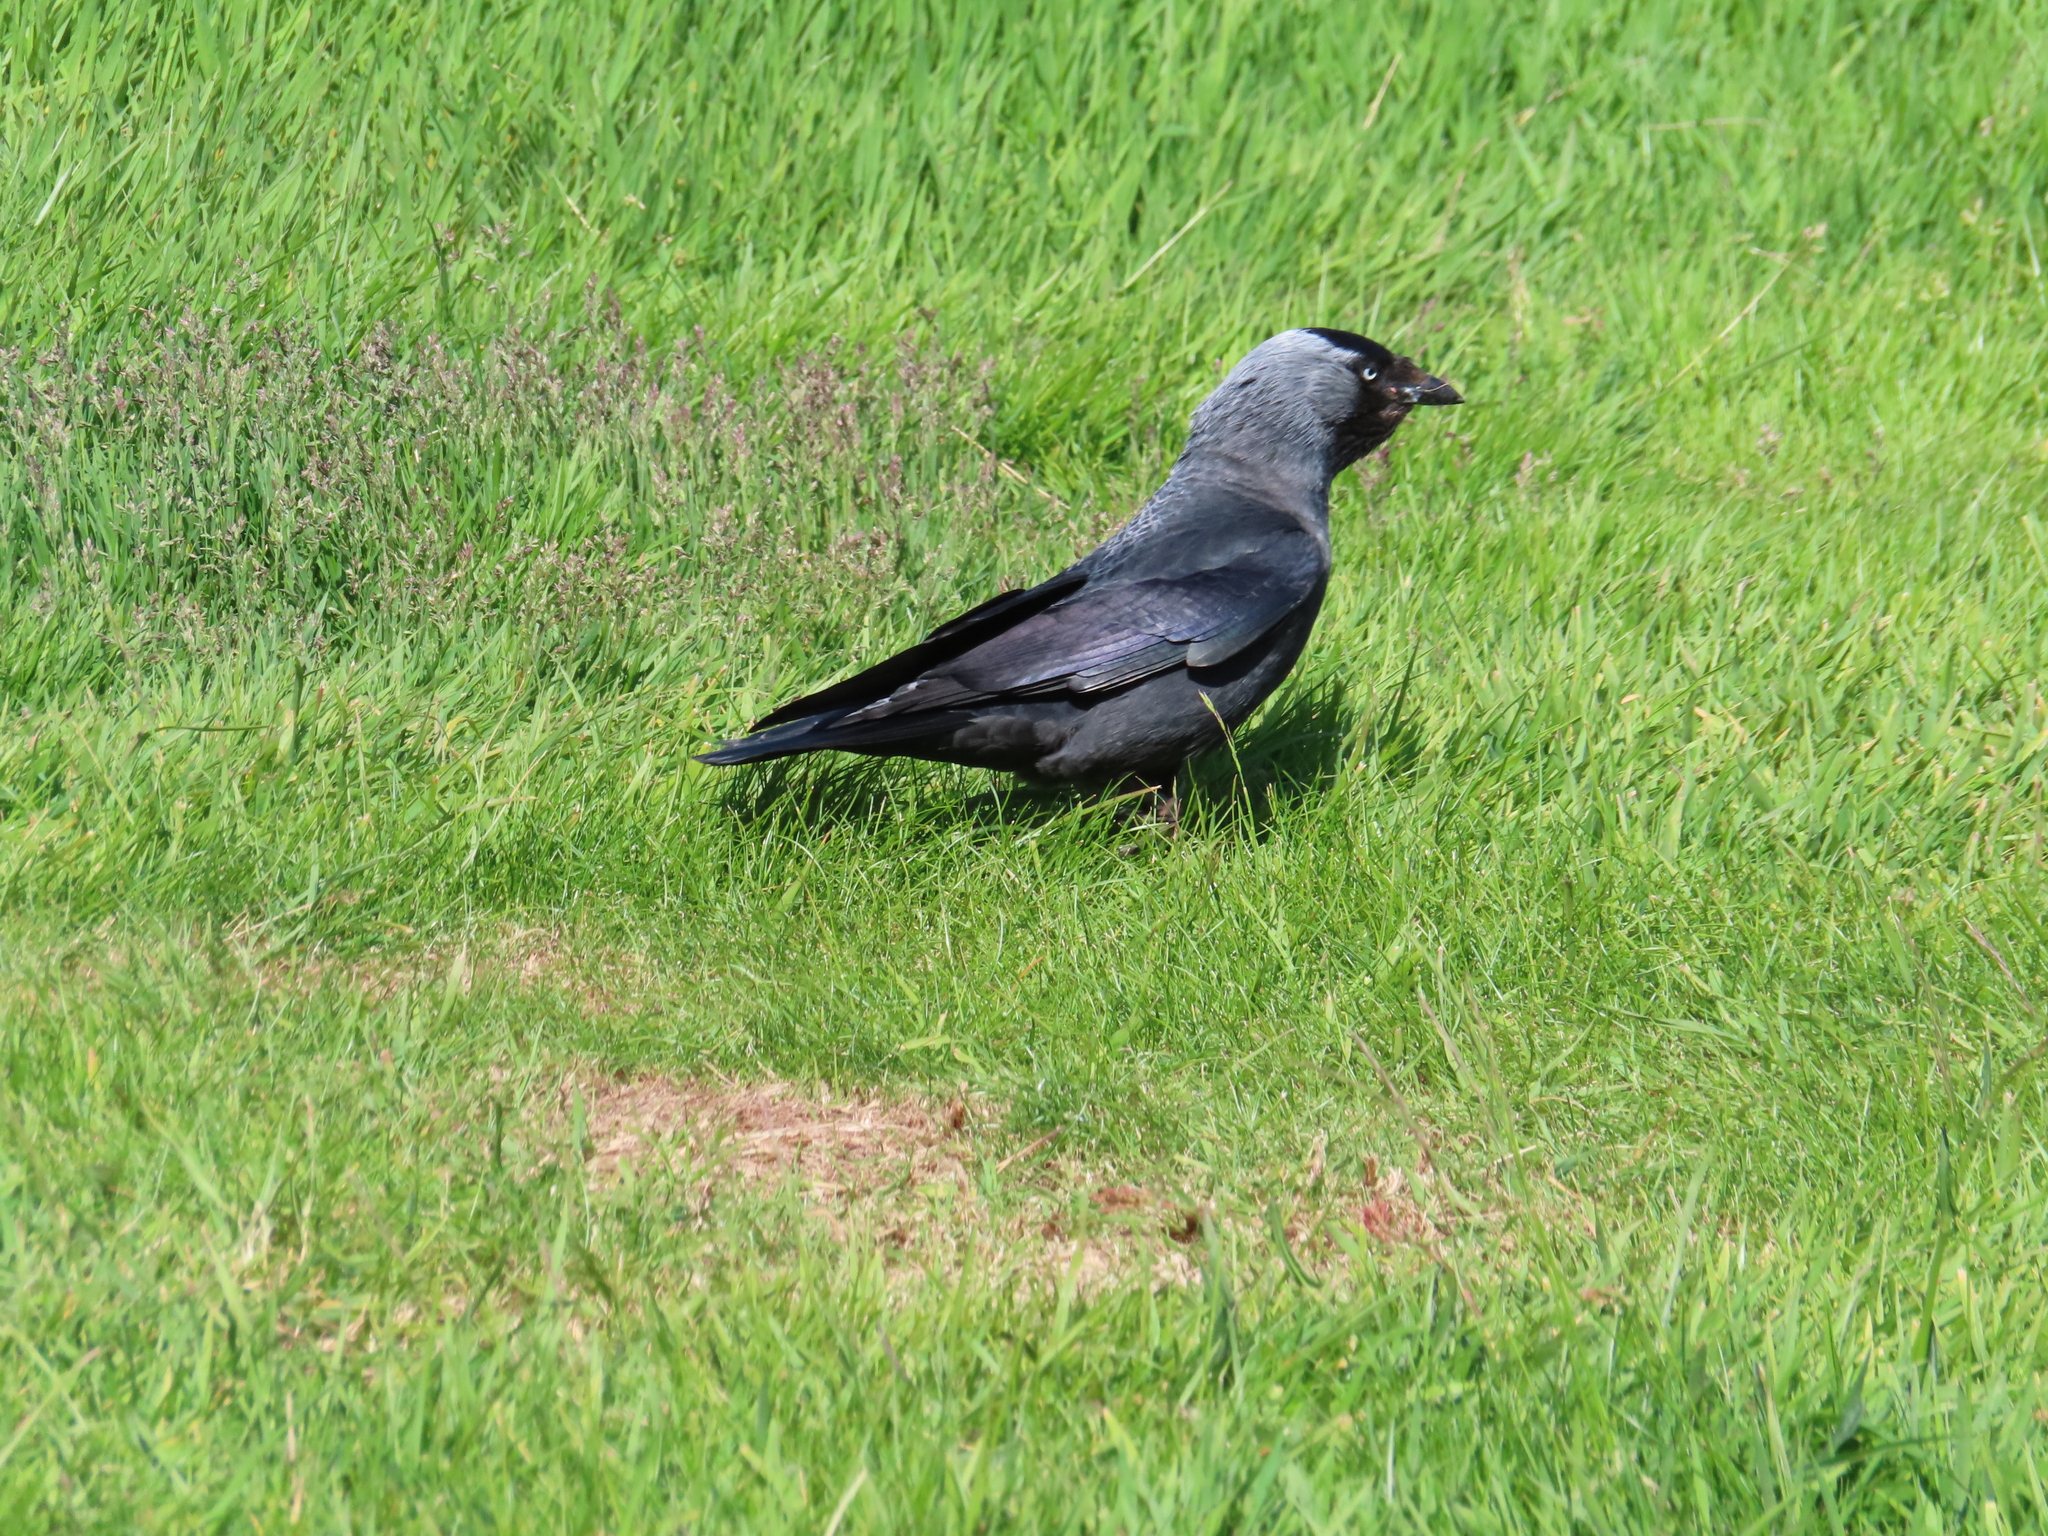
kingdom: Animalia
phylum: Chordata
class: Aves
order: Passeriformes
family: Corvidae
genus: Coloeus
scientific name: Coloeus monedula
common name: Western jackdaw
